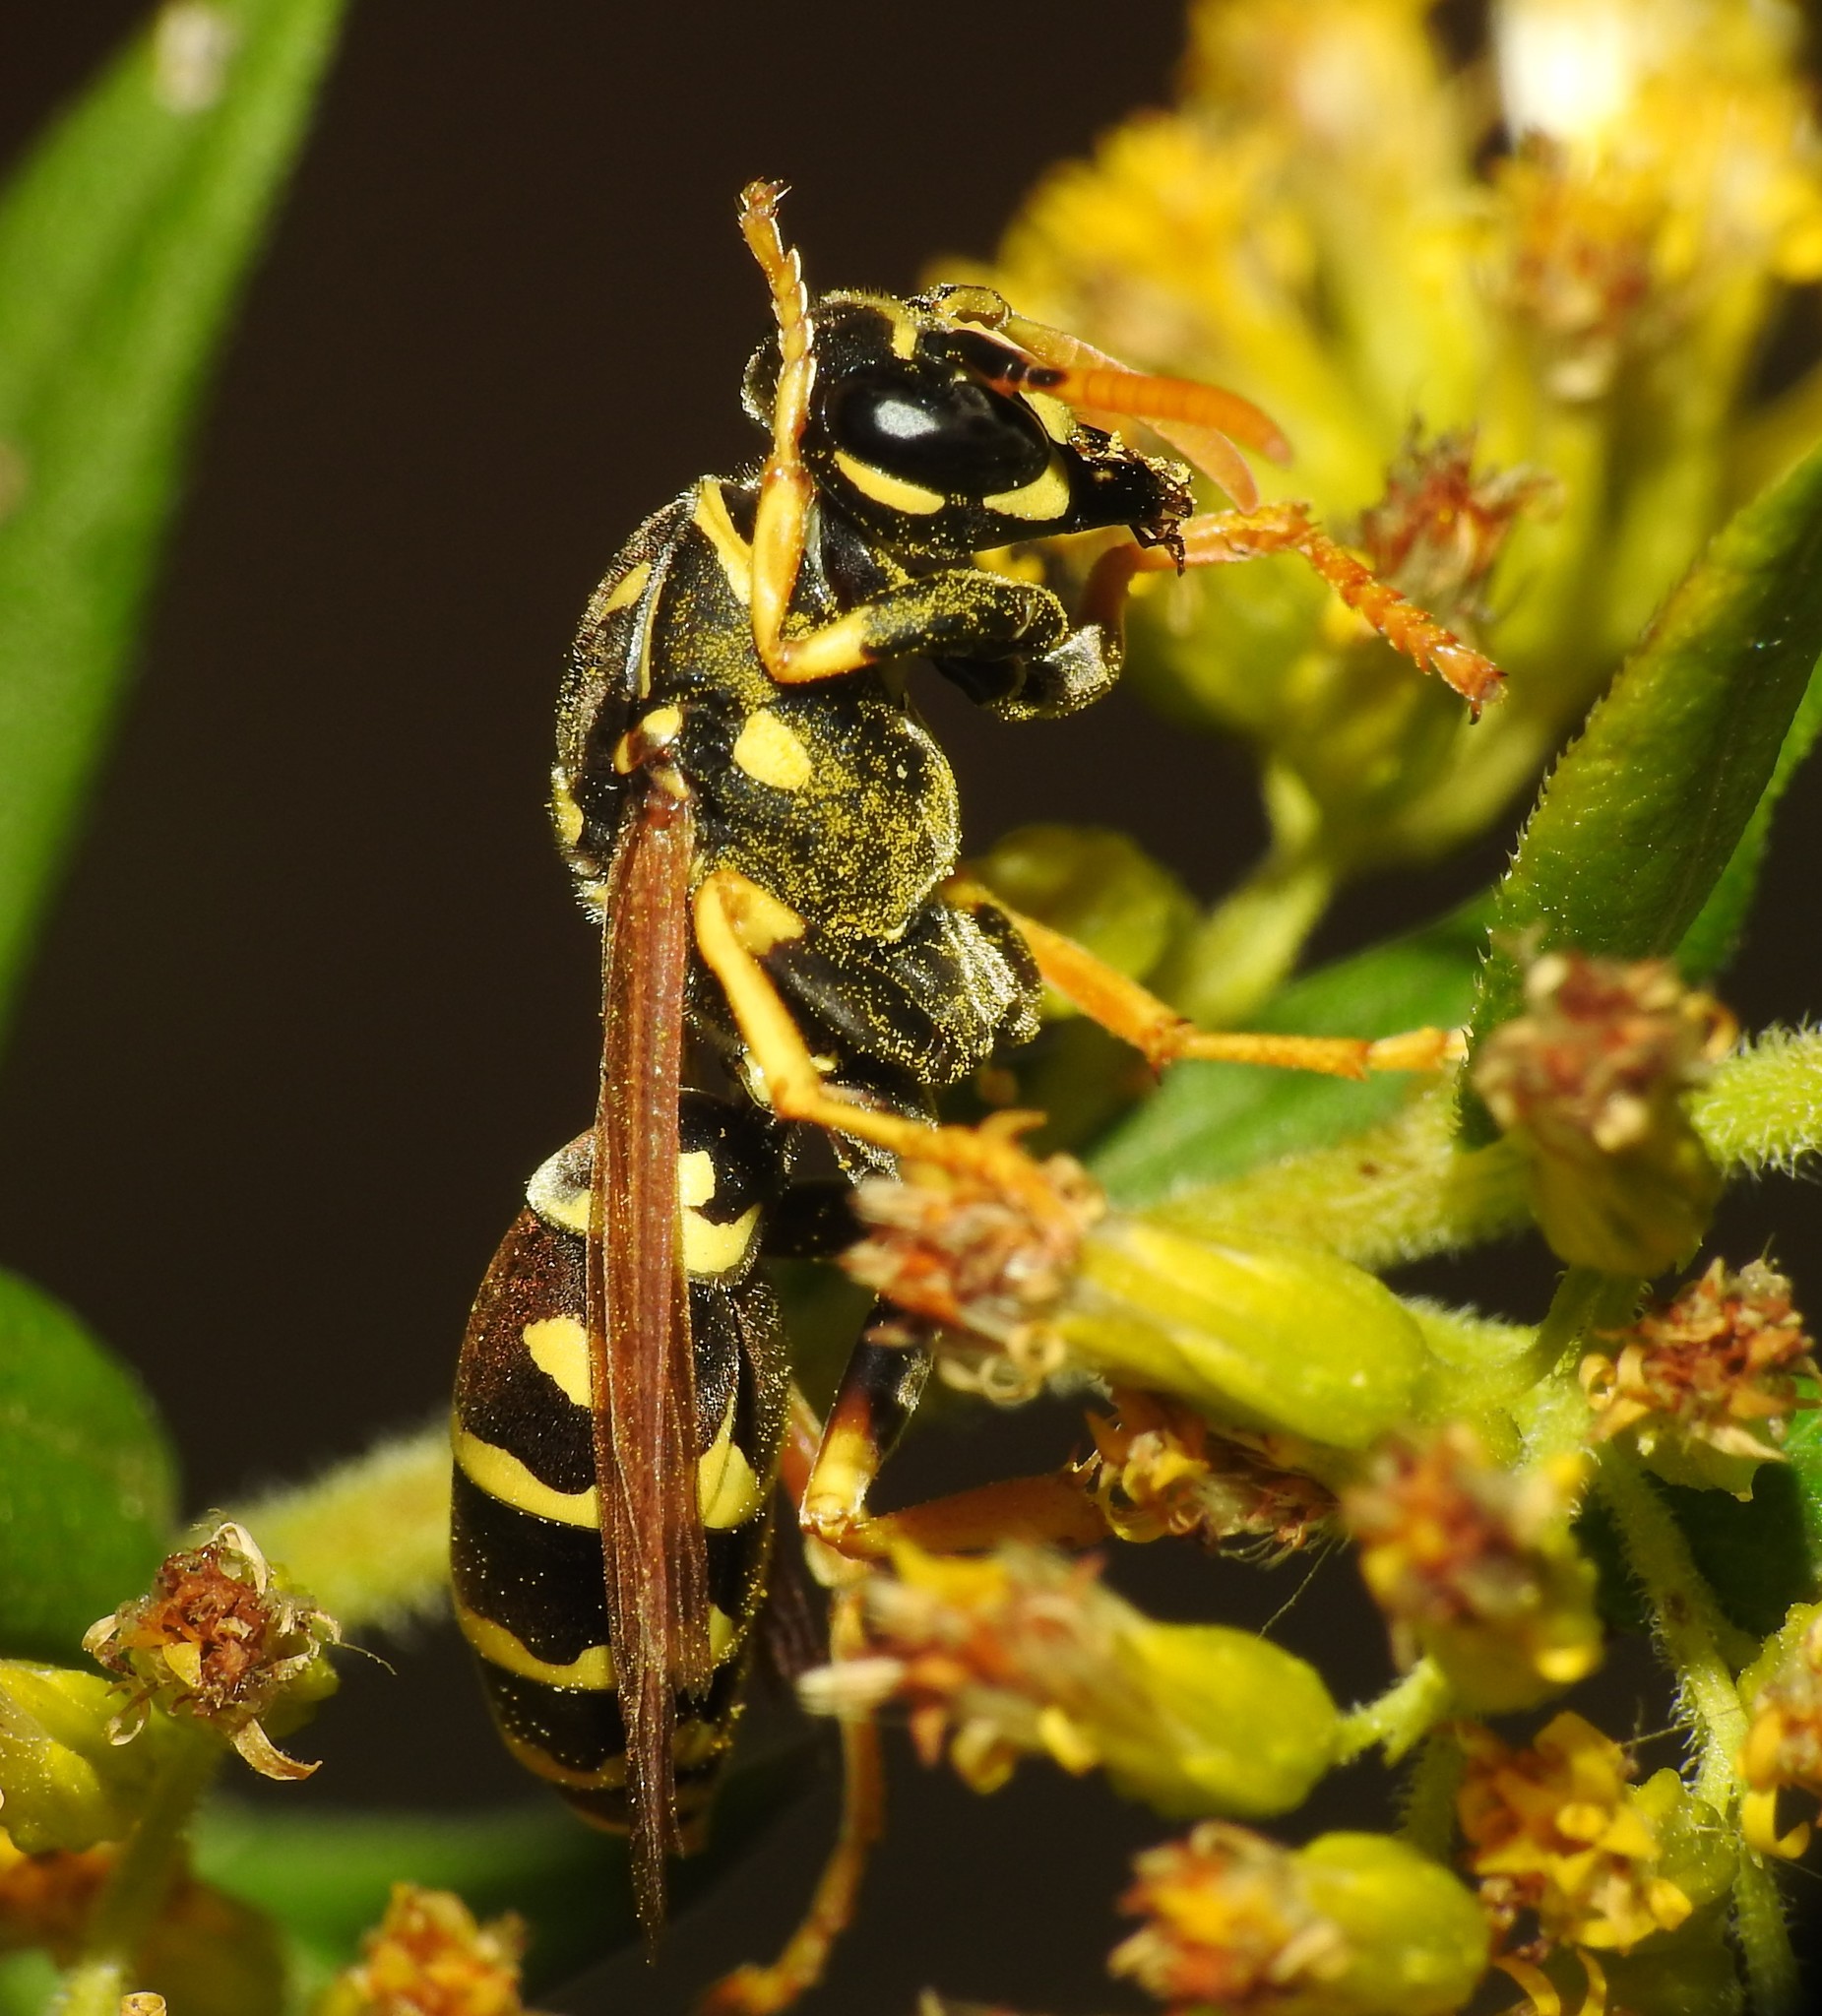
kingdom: Animalia
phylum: Arthropoda
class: Insecta
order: Hymenoptera
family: Eumenidae
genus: Polistes
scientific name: Polistes dominula
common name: Paper wasp
